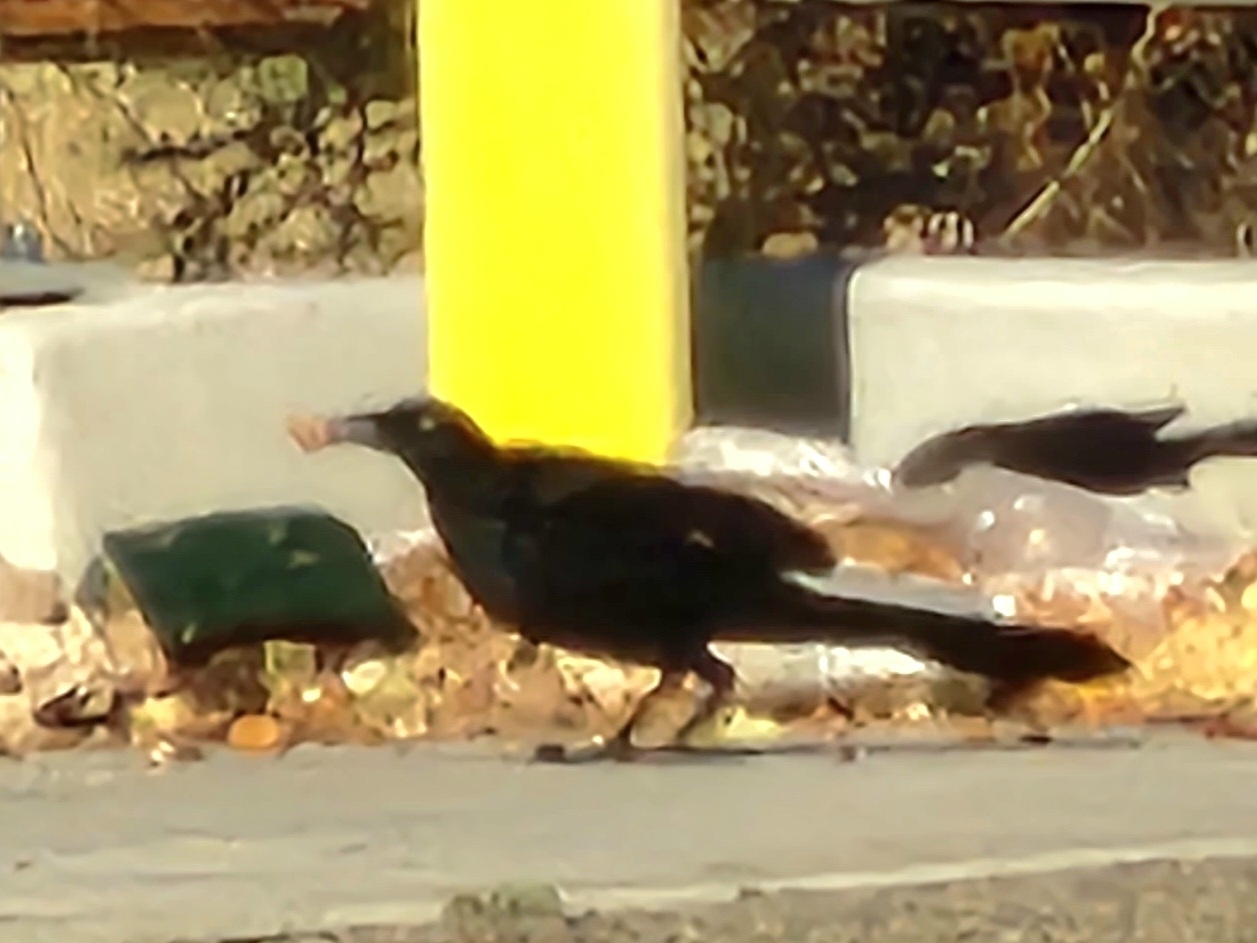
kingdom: Animalia
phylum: Chordata
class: Aves
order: Passeriformes
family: Icteridae
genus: Quiscalus
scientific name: Quiscalus mexicanus
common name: Great-tailed grackle
